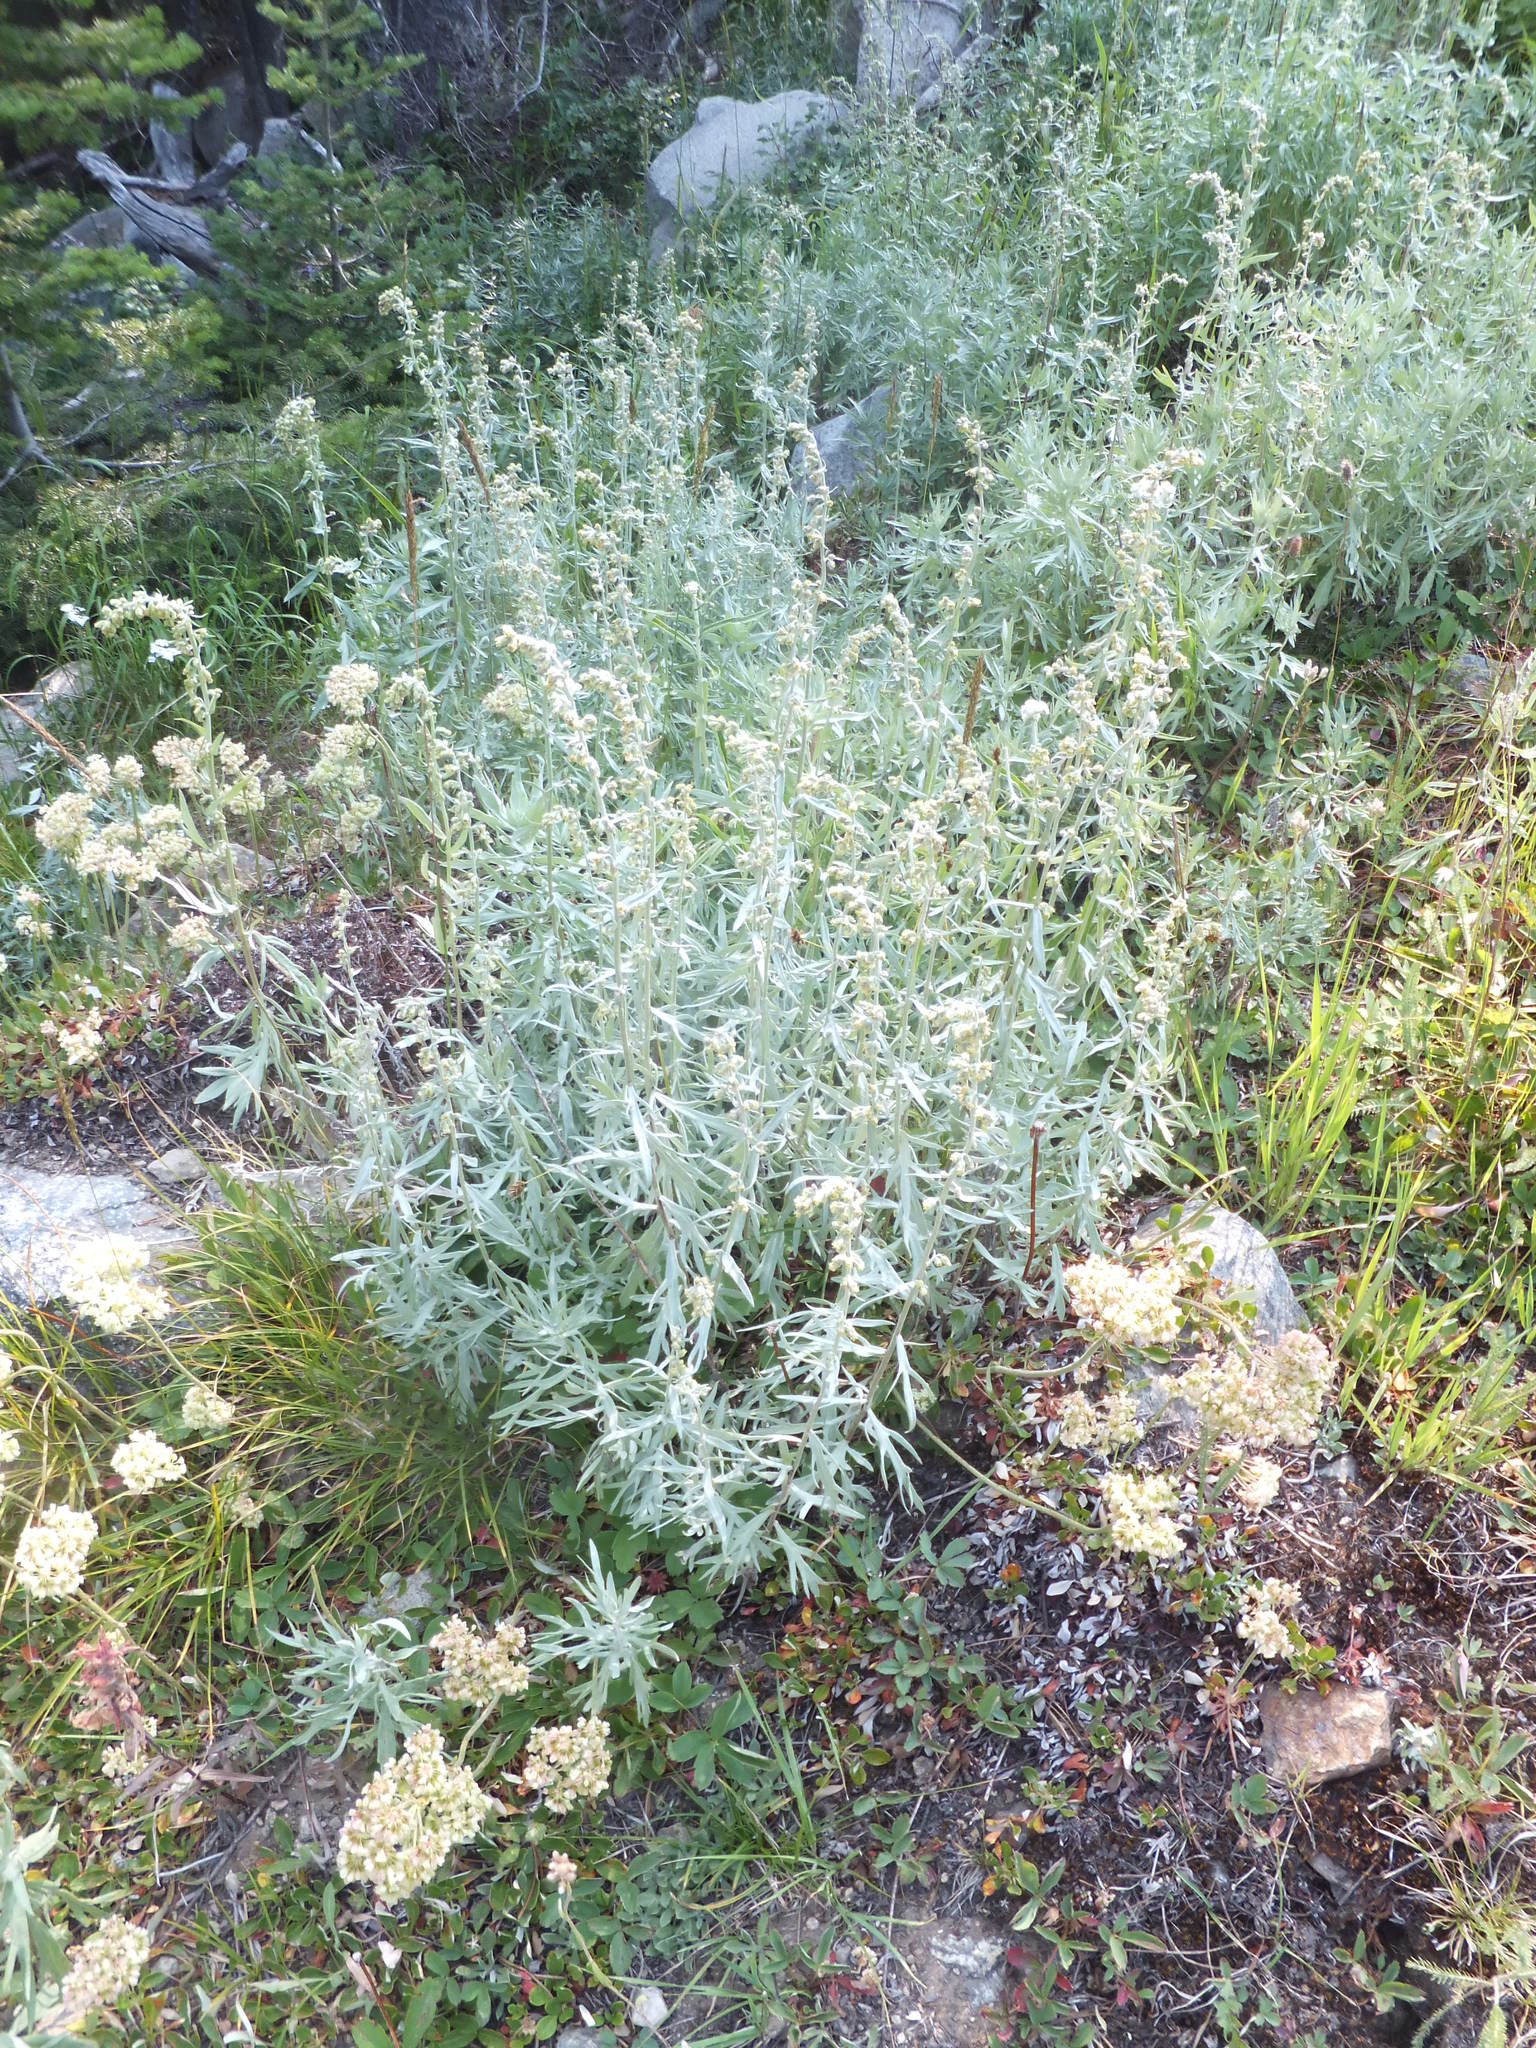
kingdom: Plantae
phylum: Tracheophyta
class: Magnoliopsida
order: Asterales
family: Asteraceae
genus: Artemisia
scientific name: Artemisia michauxiana
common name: Lemon sagewort
